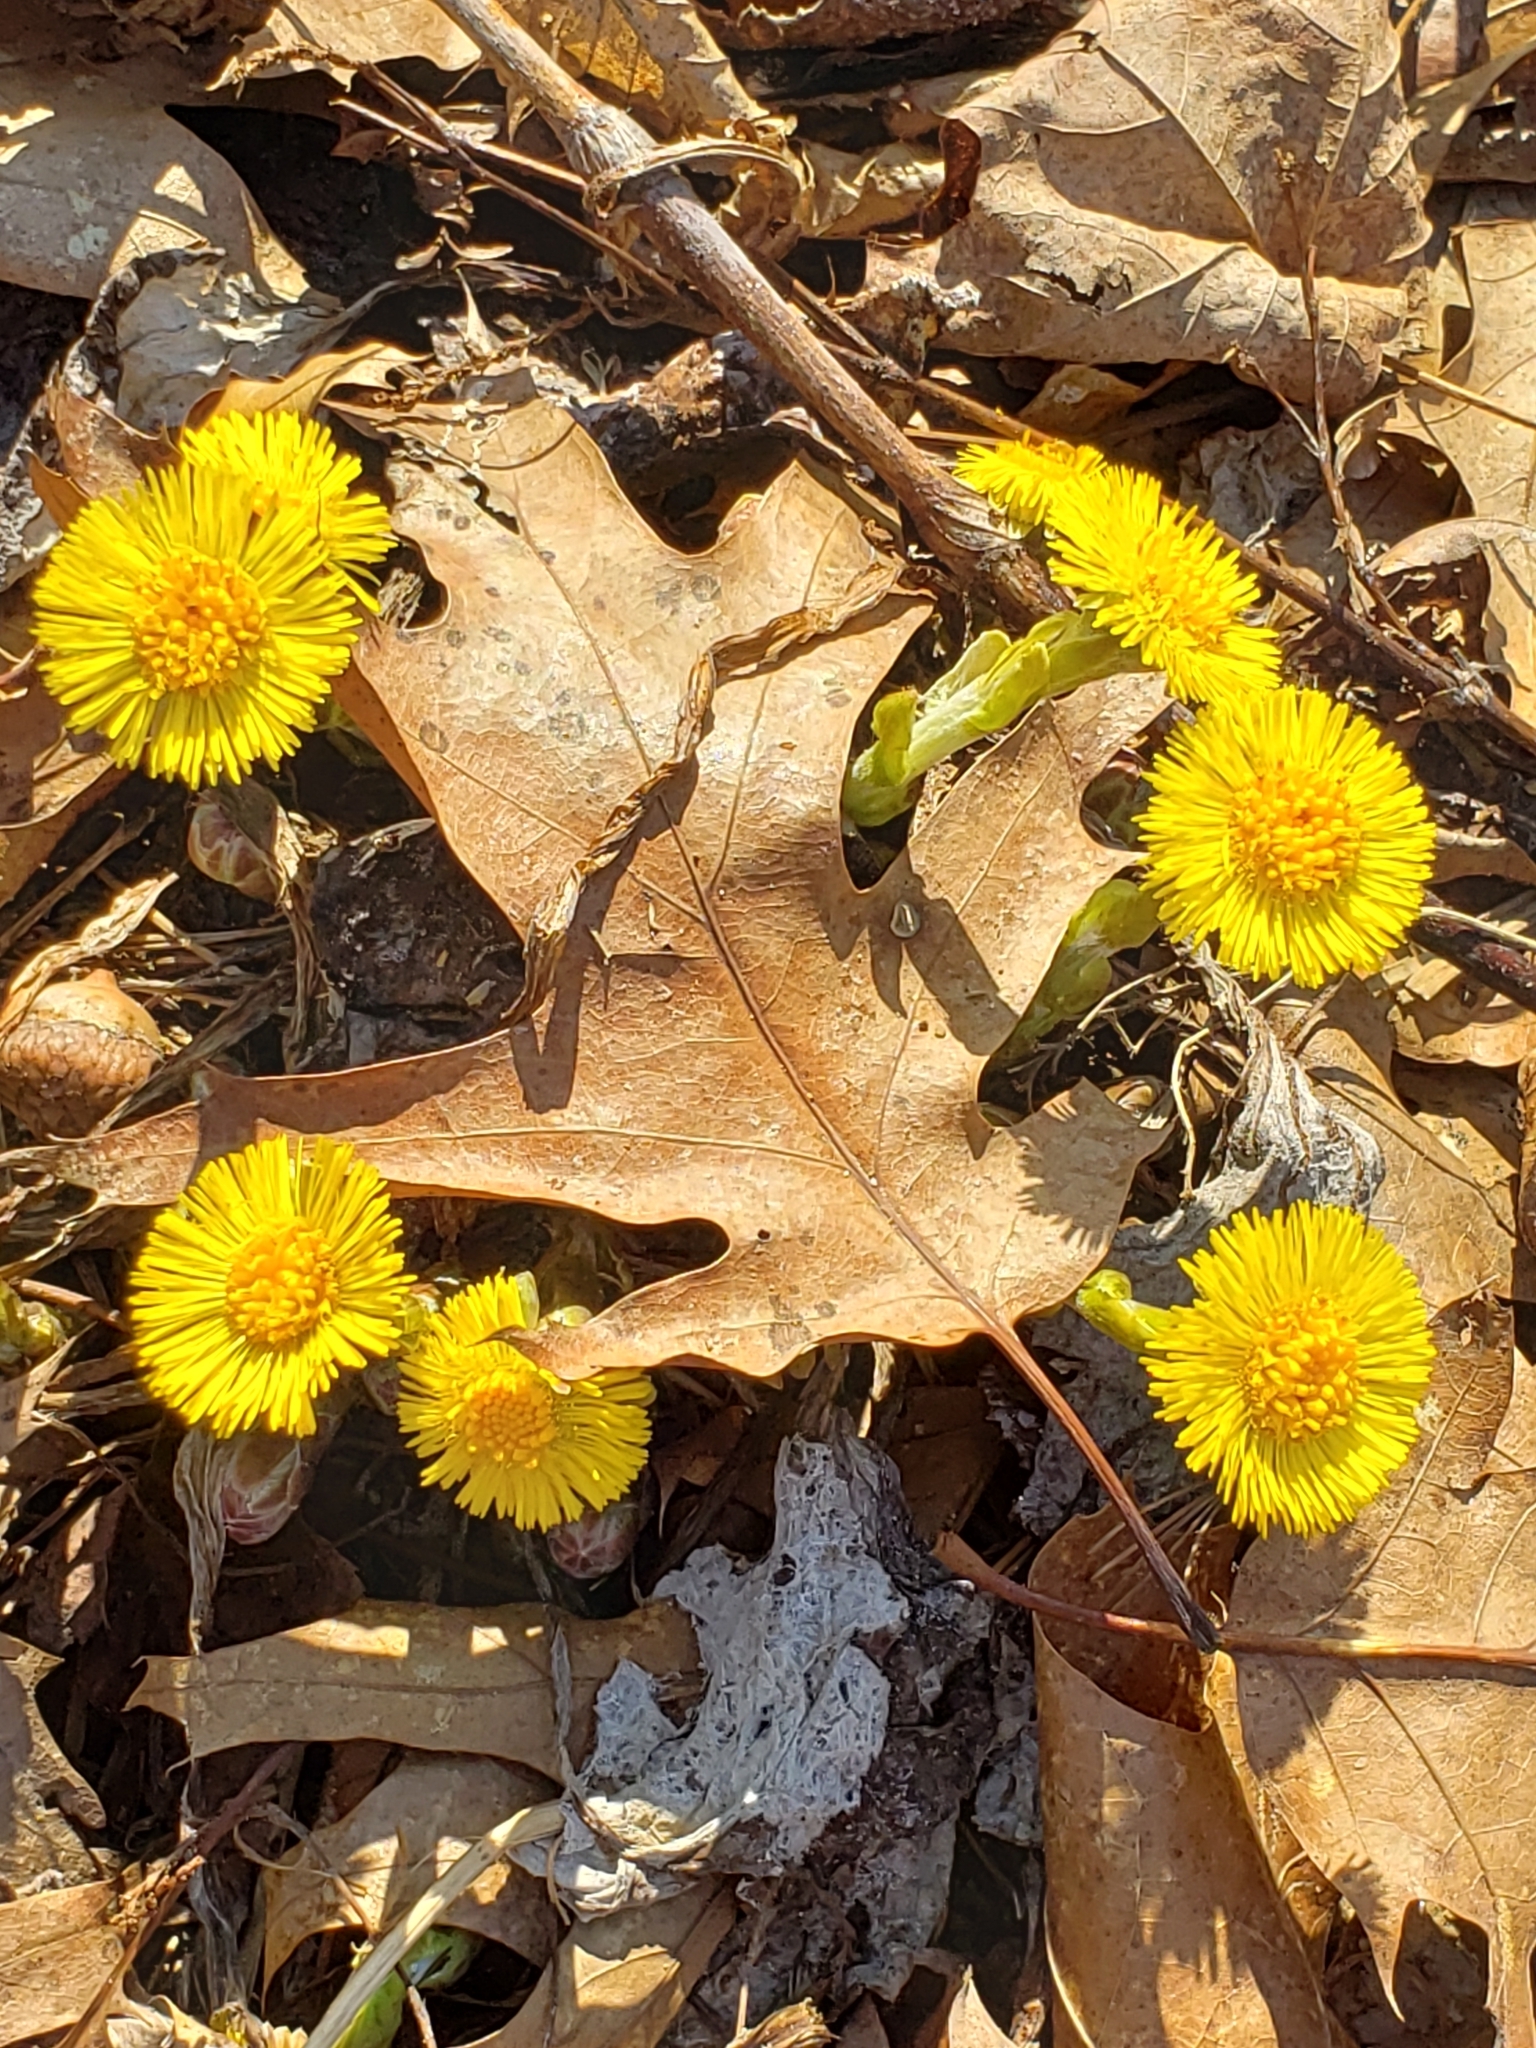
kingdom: Plantae
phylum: Tracheophyta
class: Magnoliopsida
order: Asterales
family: Asteraceae
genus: Tussilago
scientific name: Tussilago farfara
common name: Coltsfoot
